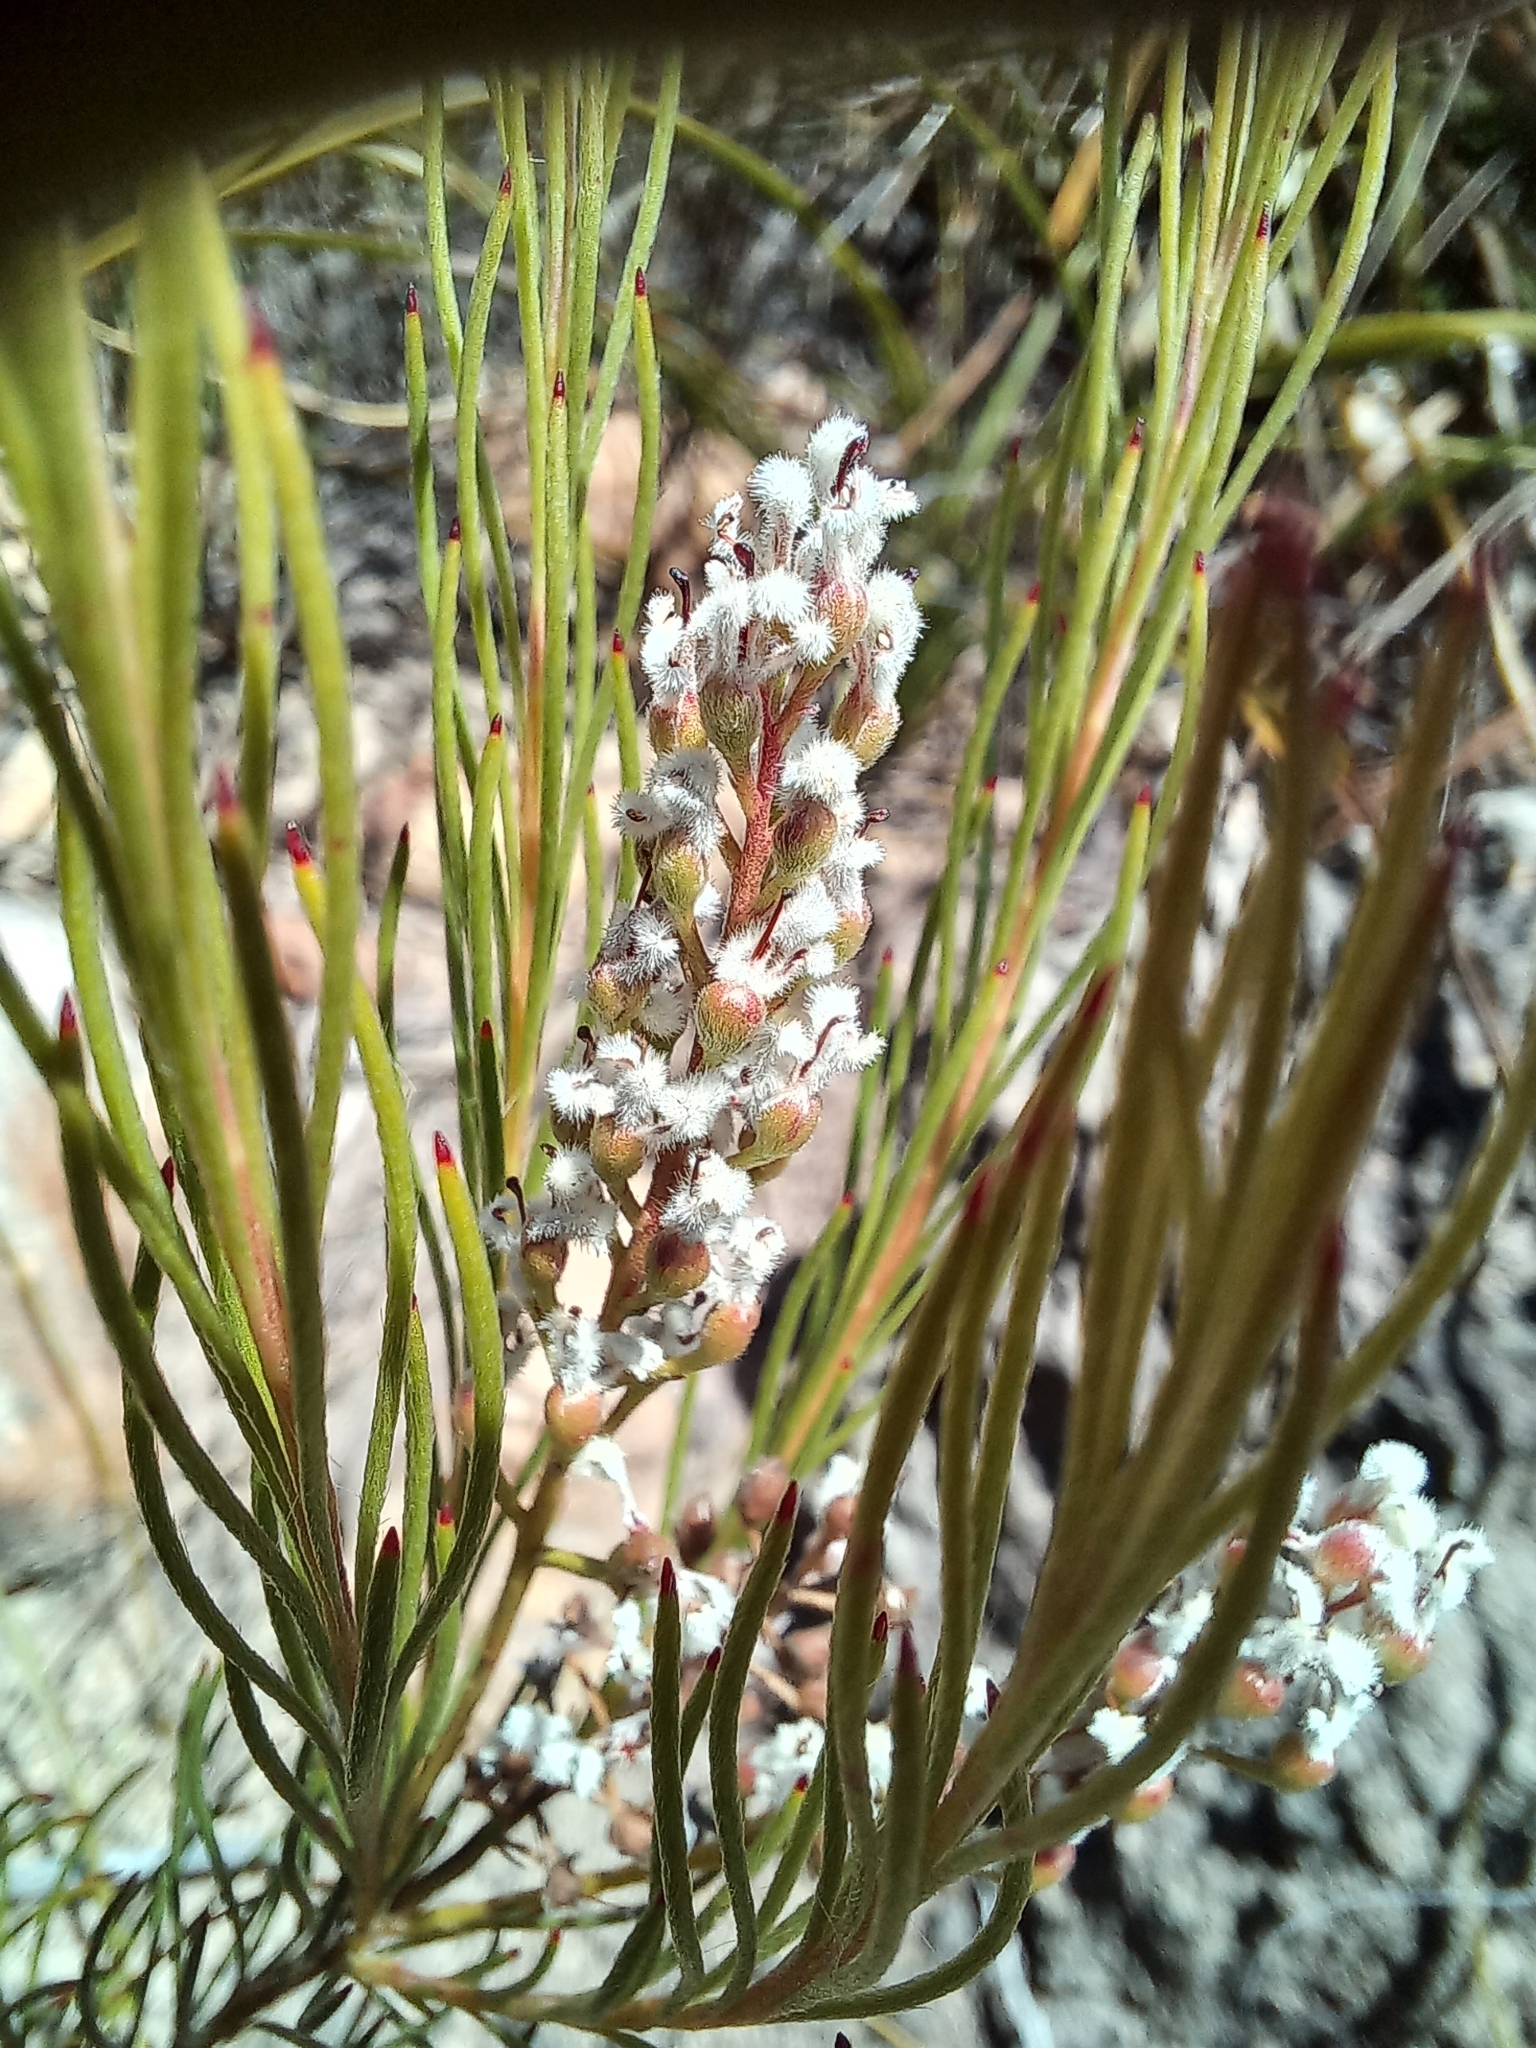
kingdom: Plantae
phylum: Tracheophyta
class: Magnoliopsida
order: Proteales
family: Proteaceae
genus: Spatalla
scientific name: Spatalla racemosa
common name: Lax-stalked spoon
